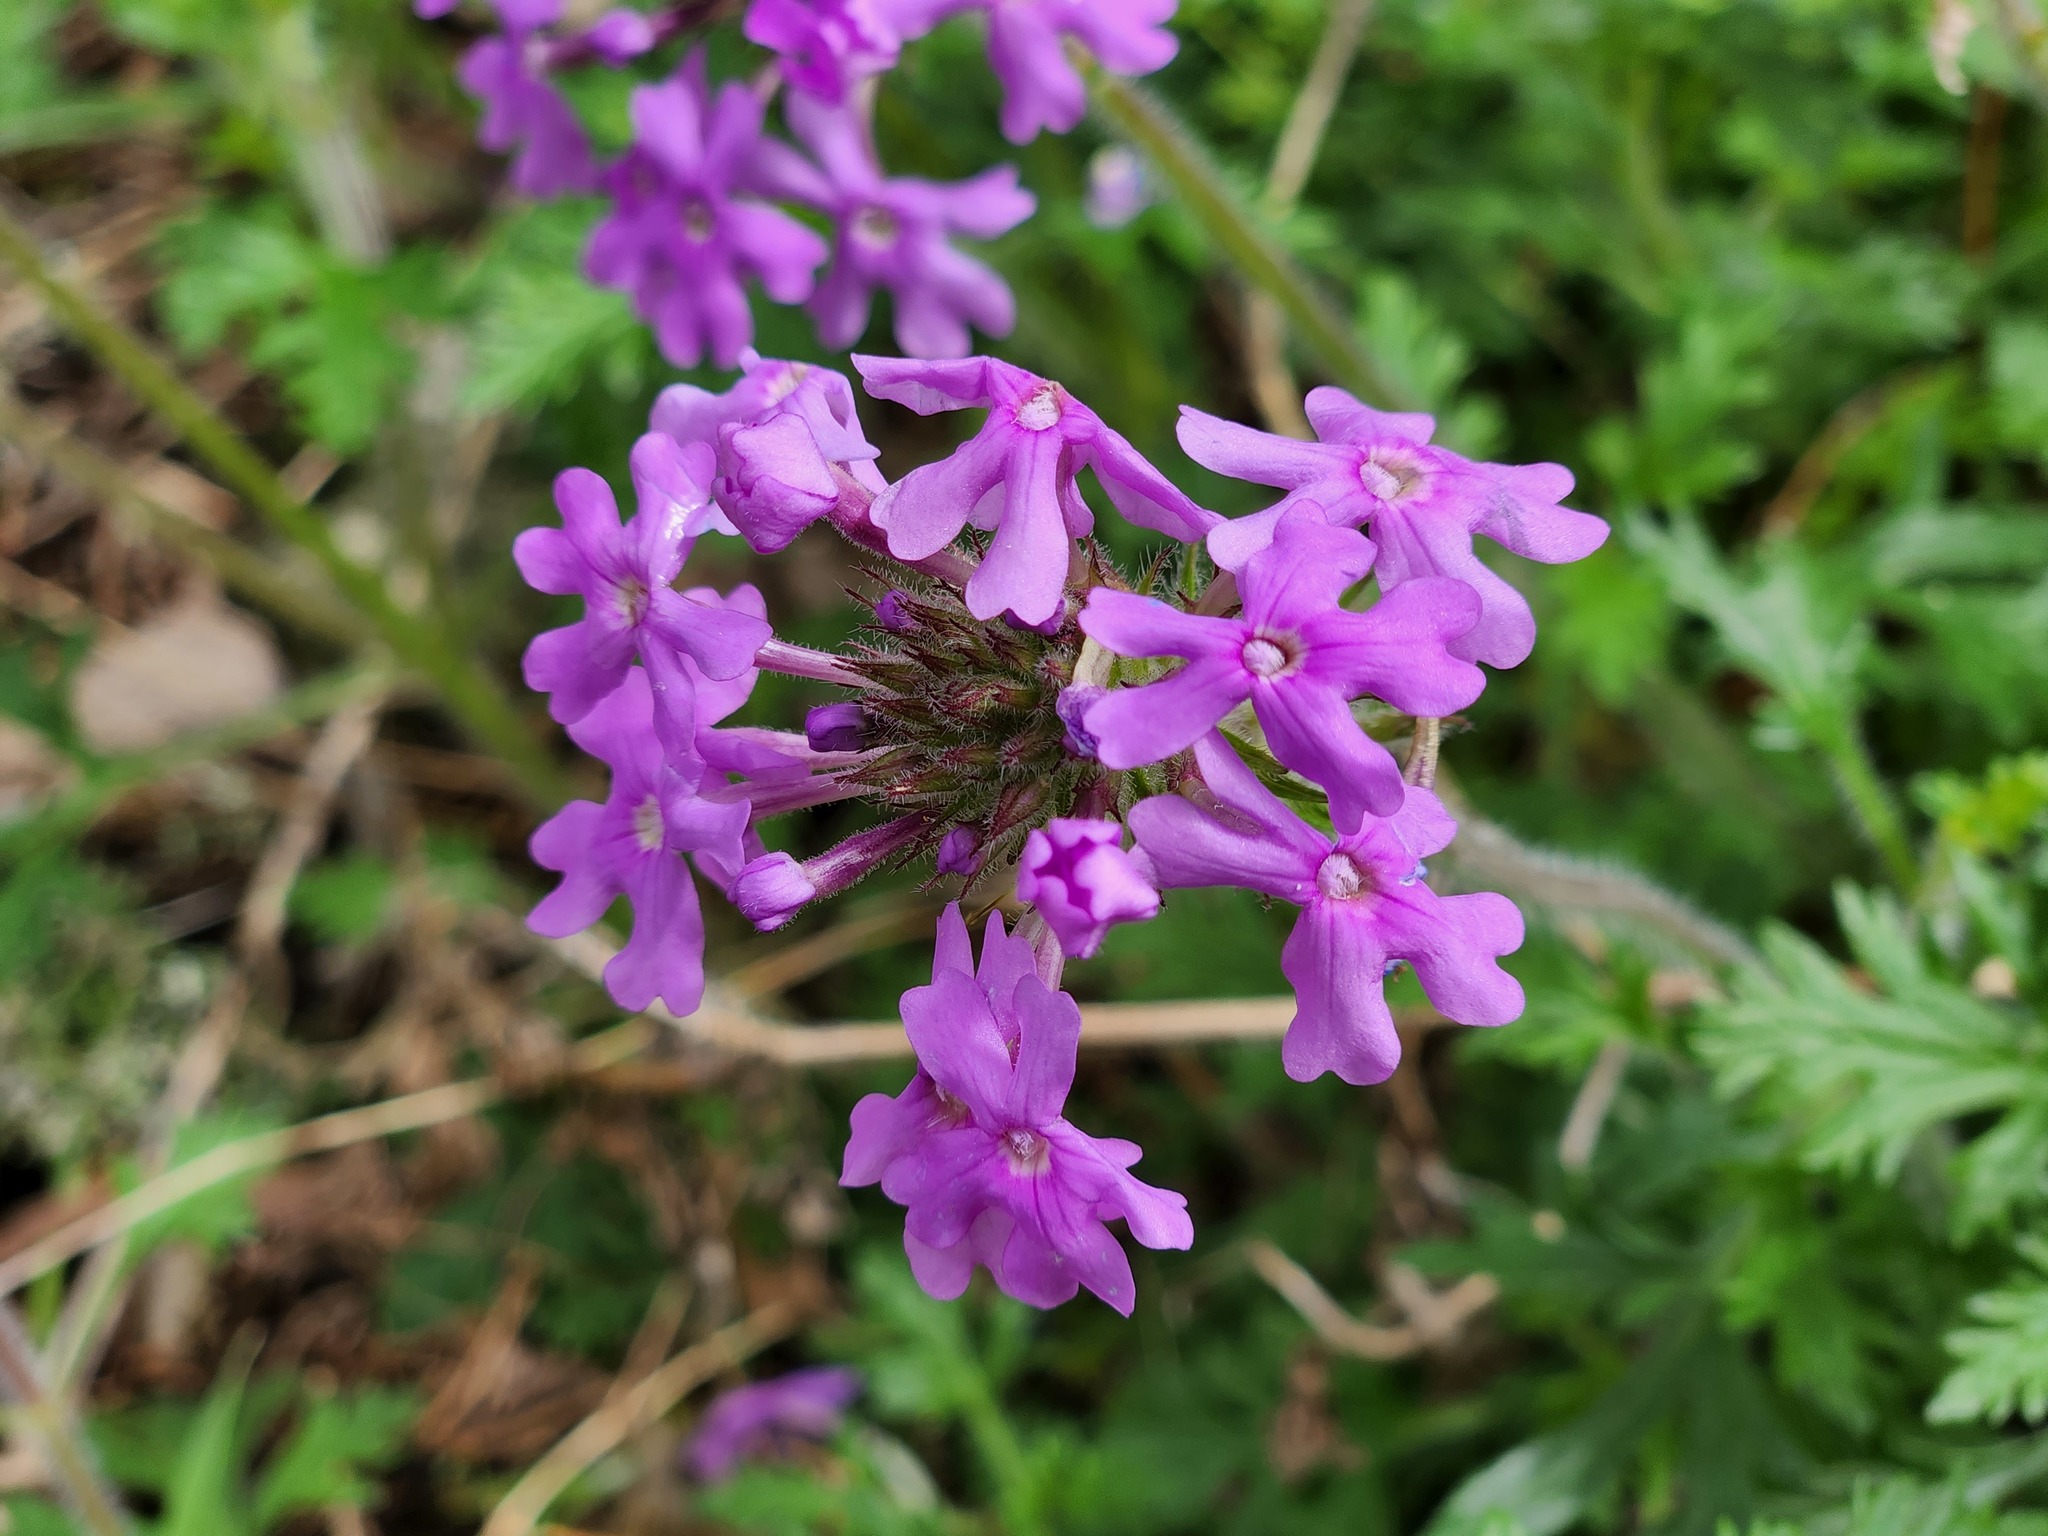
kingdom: Plantae
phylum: Tracheophyta
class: Magnoliopsida
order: Lamiales
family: Verbenaceae
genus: Verbena
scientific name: Verbena canadensis
